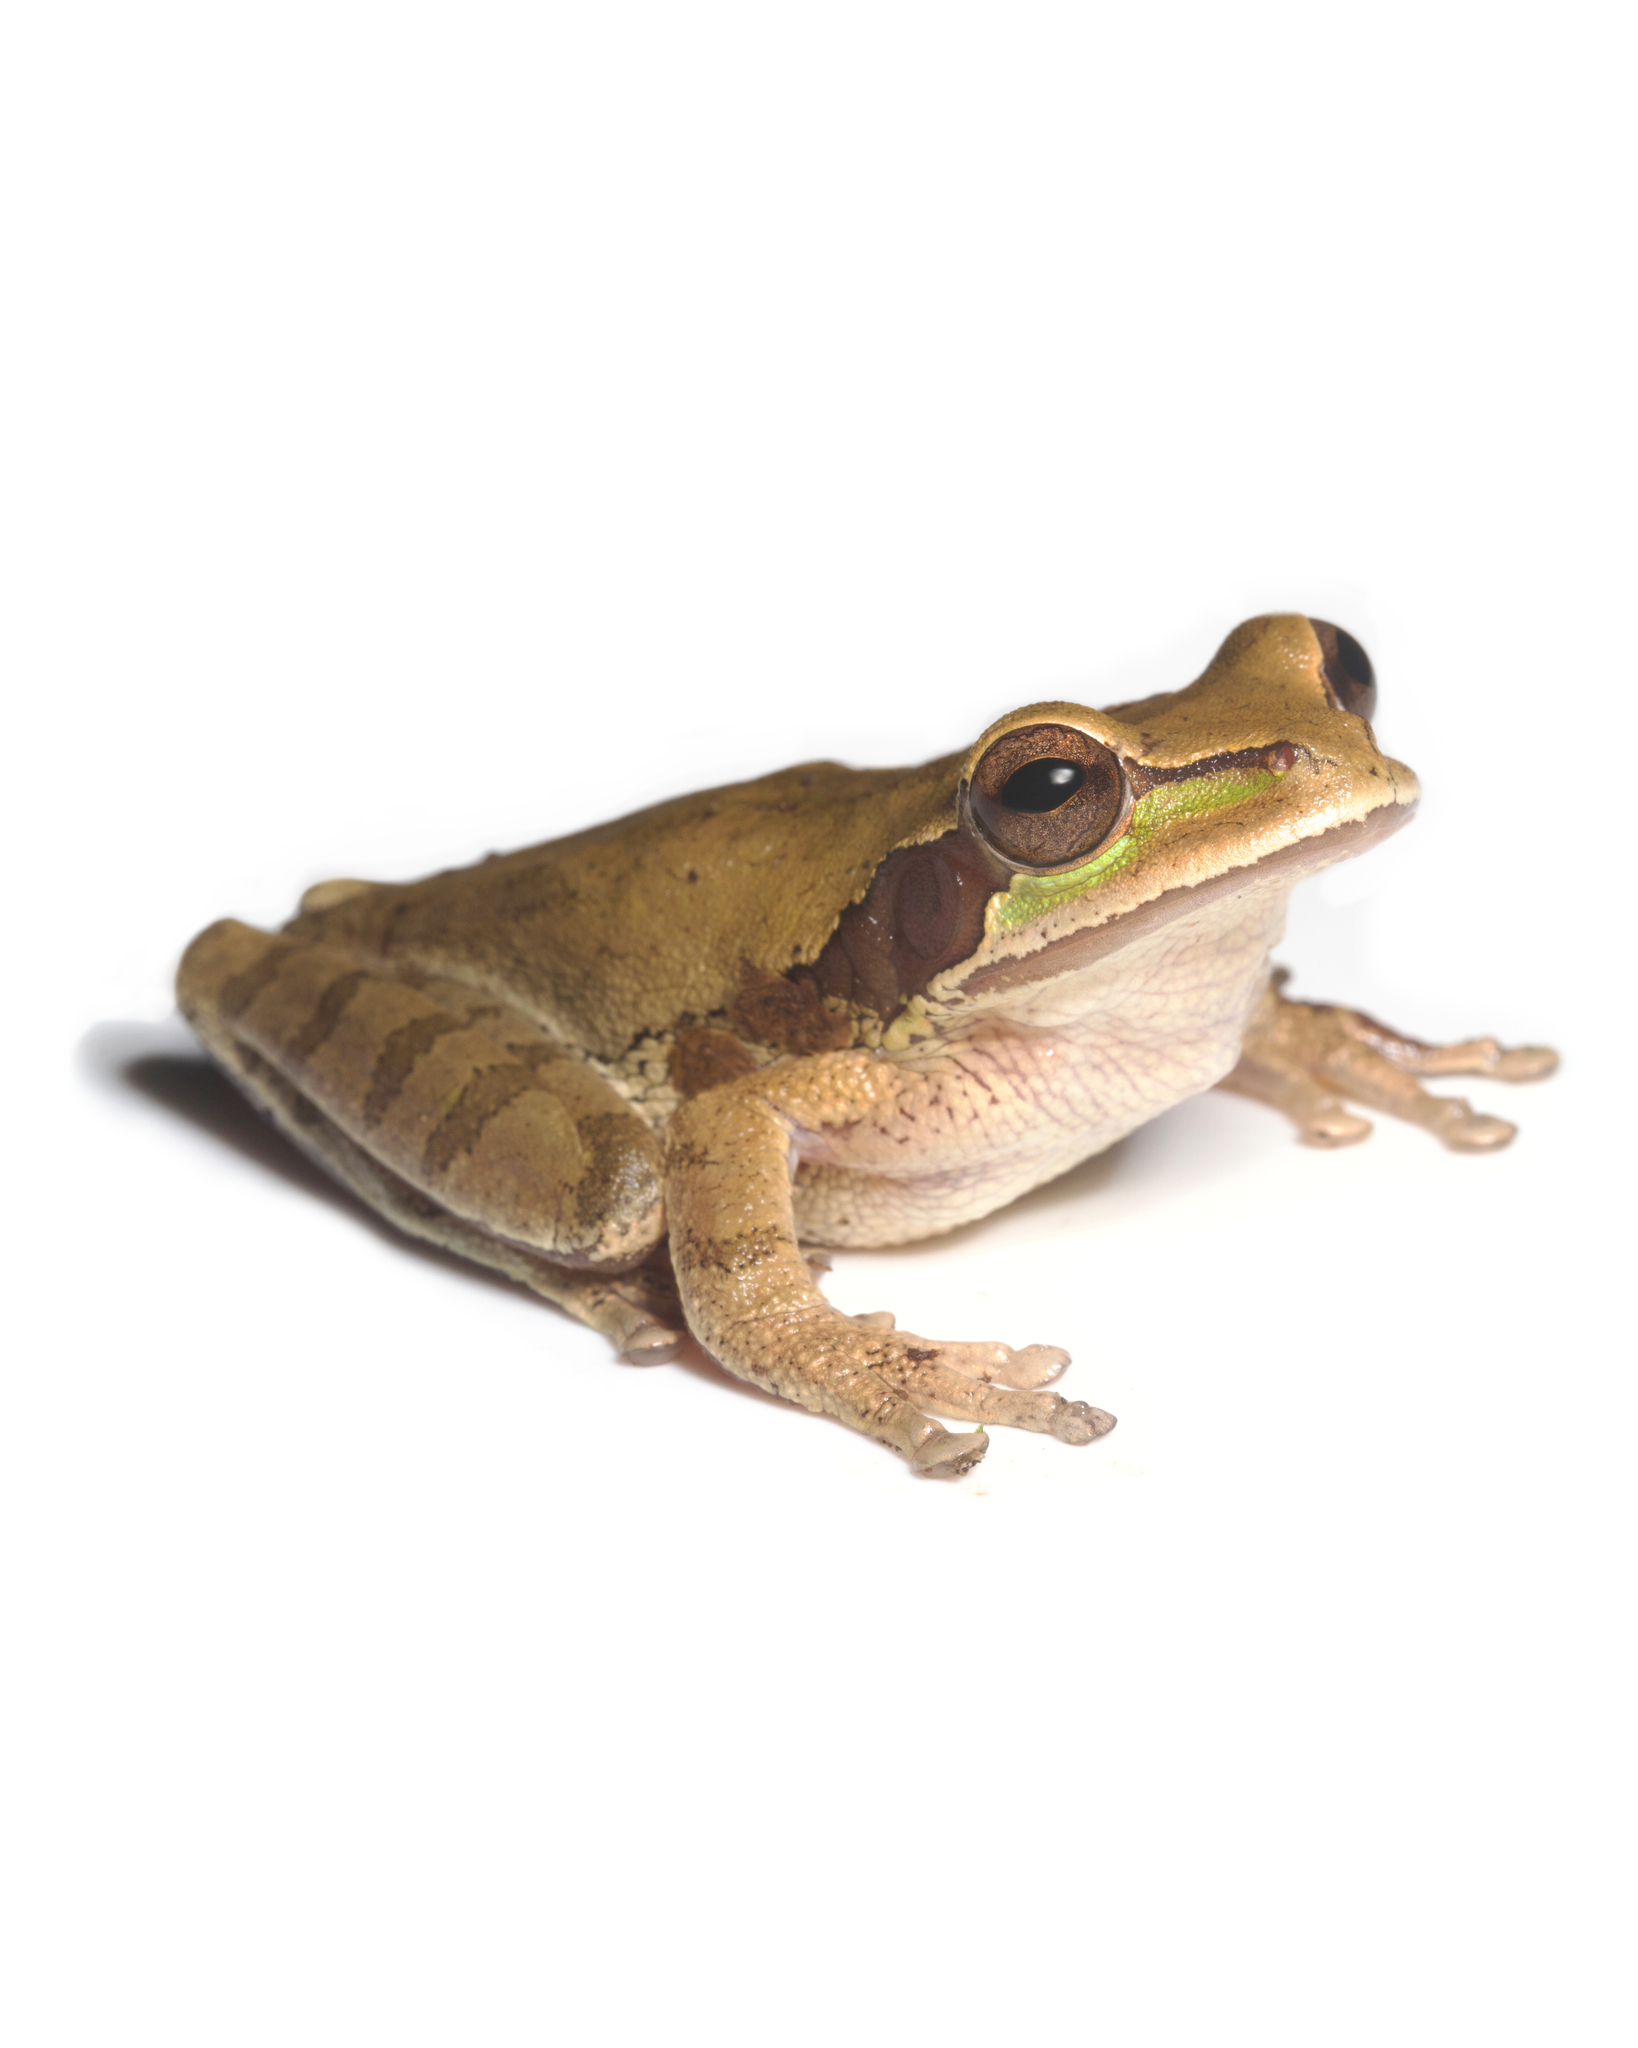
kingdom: Animalia
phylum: Chordata
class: Amphibia
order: Anura
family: Hylidae
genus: Smilisca
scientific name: Smilisca phaeota
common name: Central american smilisca
